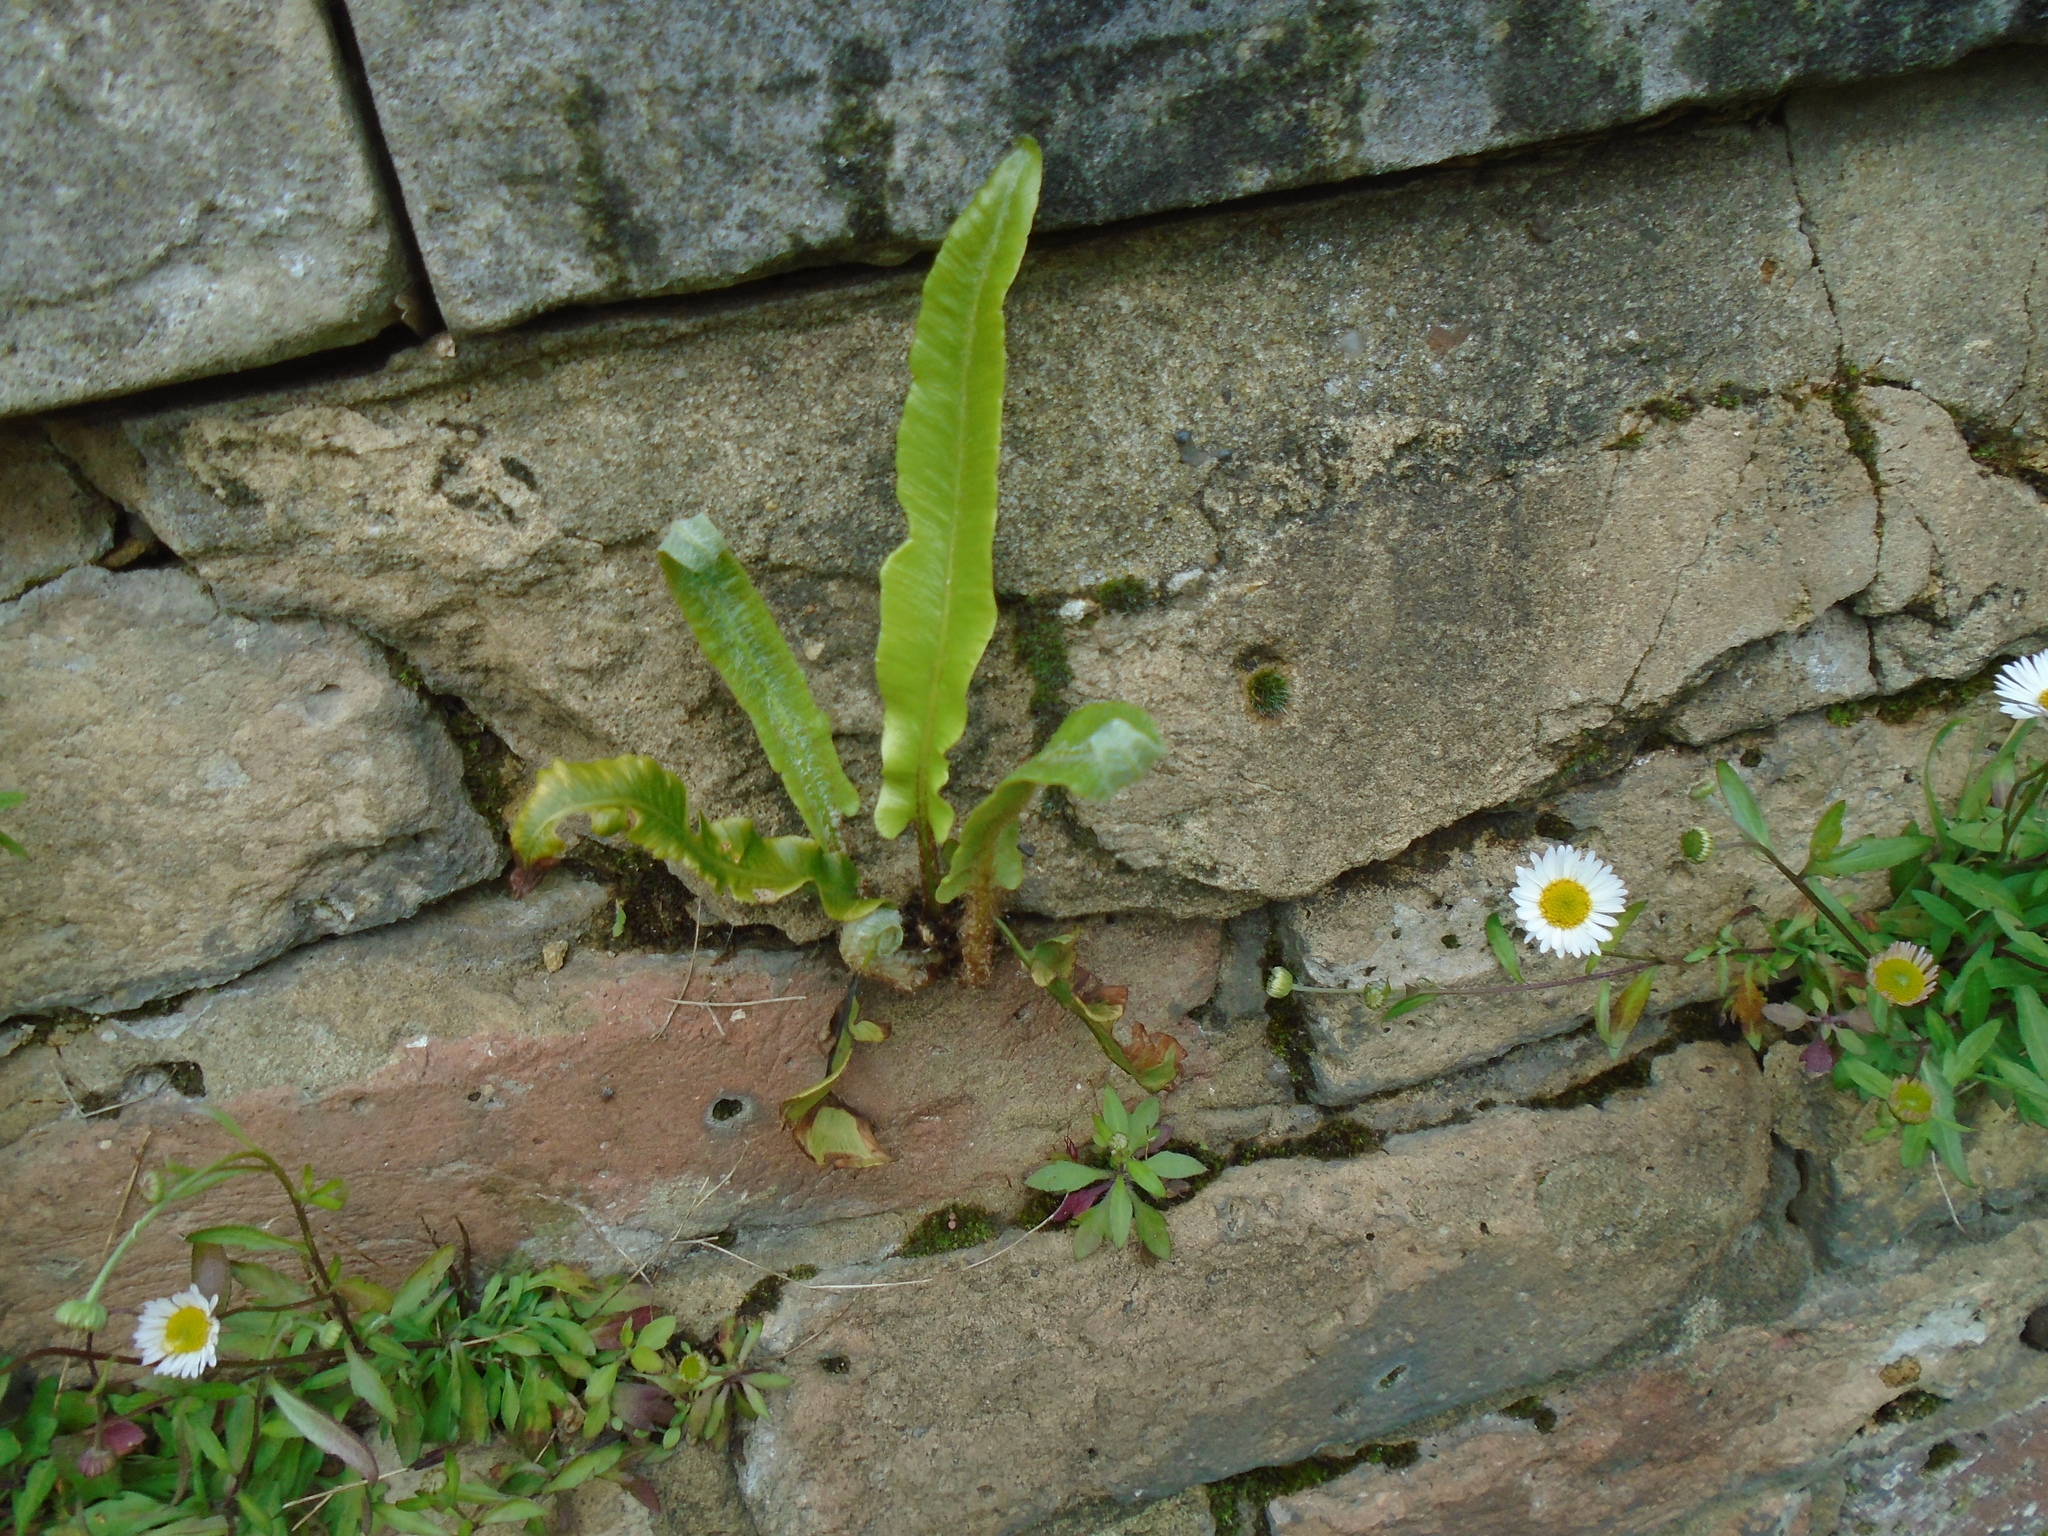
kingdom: Plantae
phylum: Tracheophyta
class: Polypodiopsida
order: Polypodiales
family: Aspleniaceae
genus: Asplenium
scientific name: Asplenium scolopendrium
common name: Hart's-tongue fern
